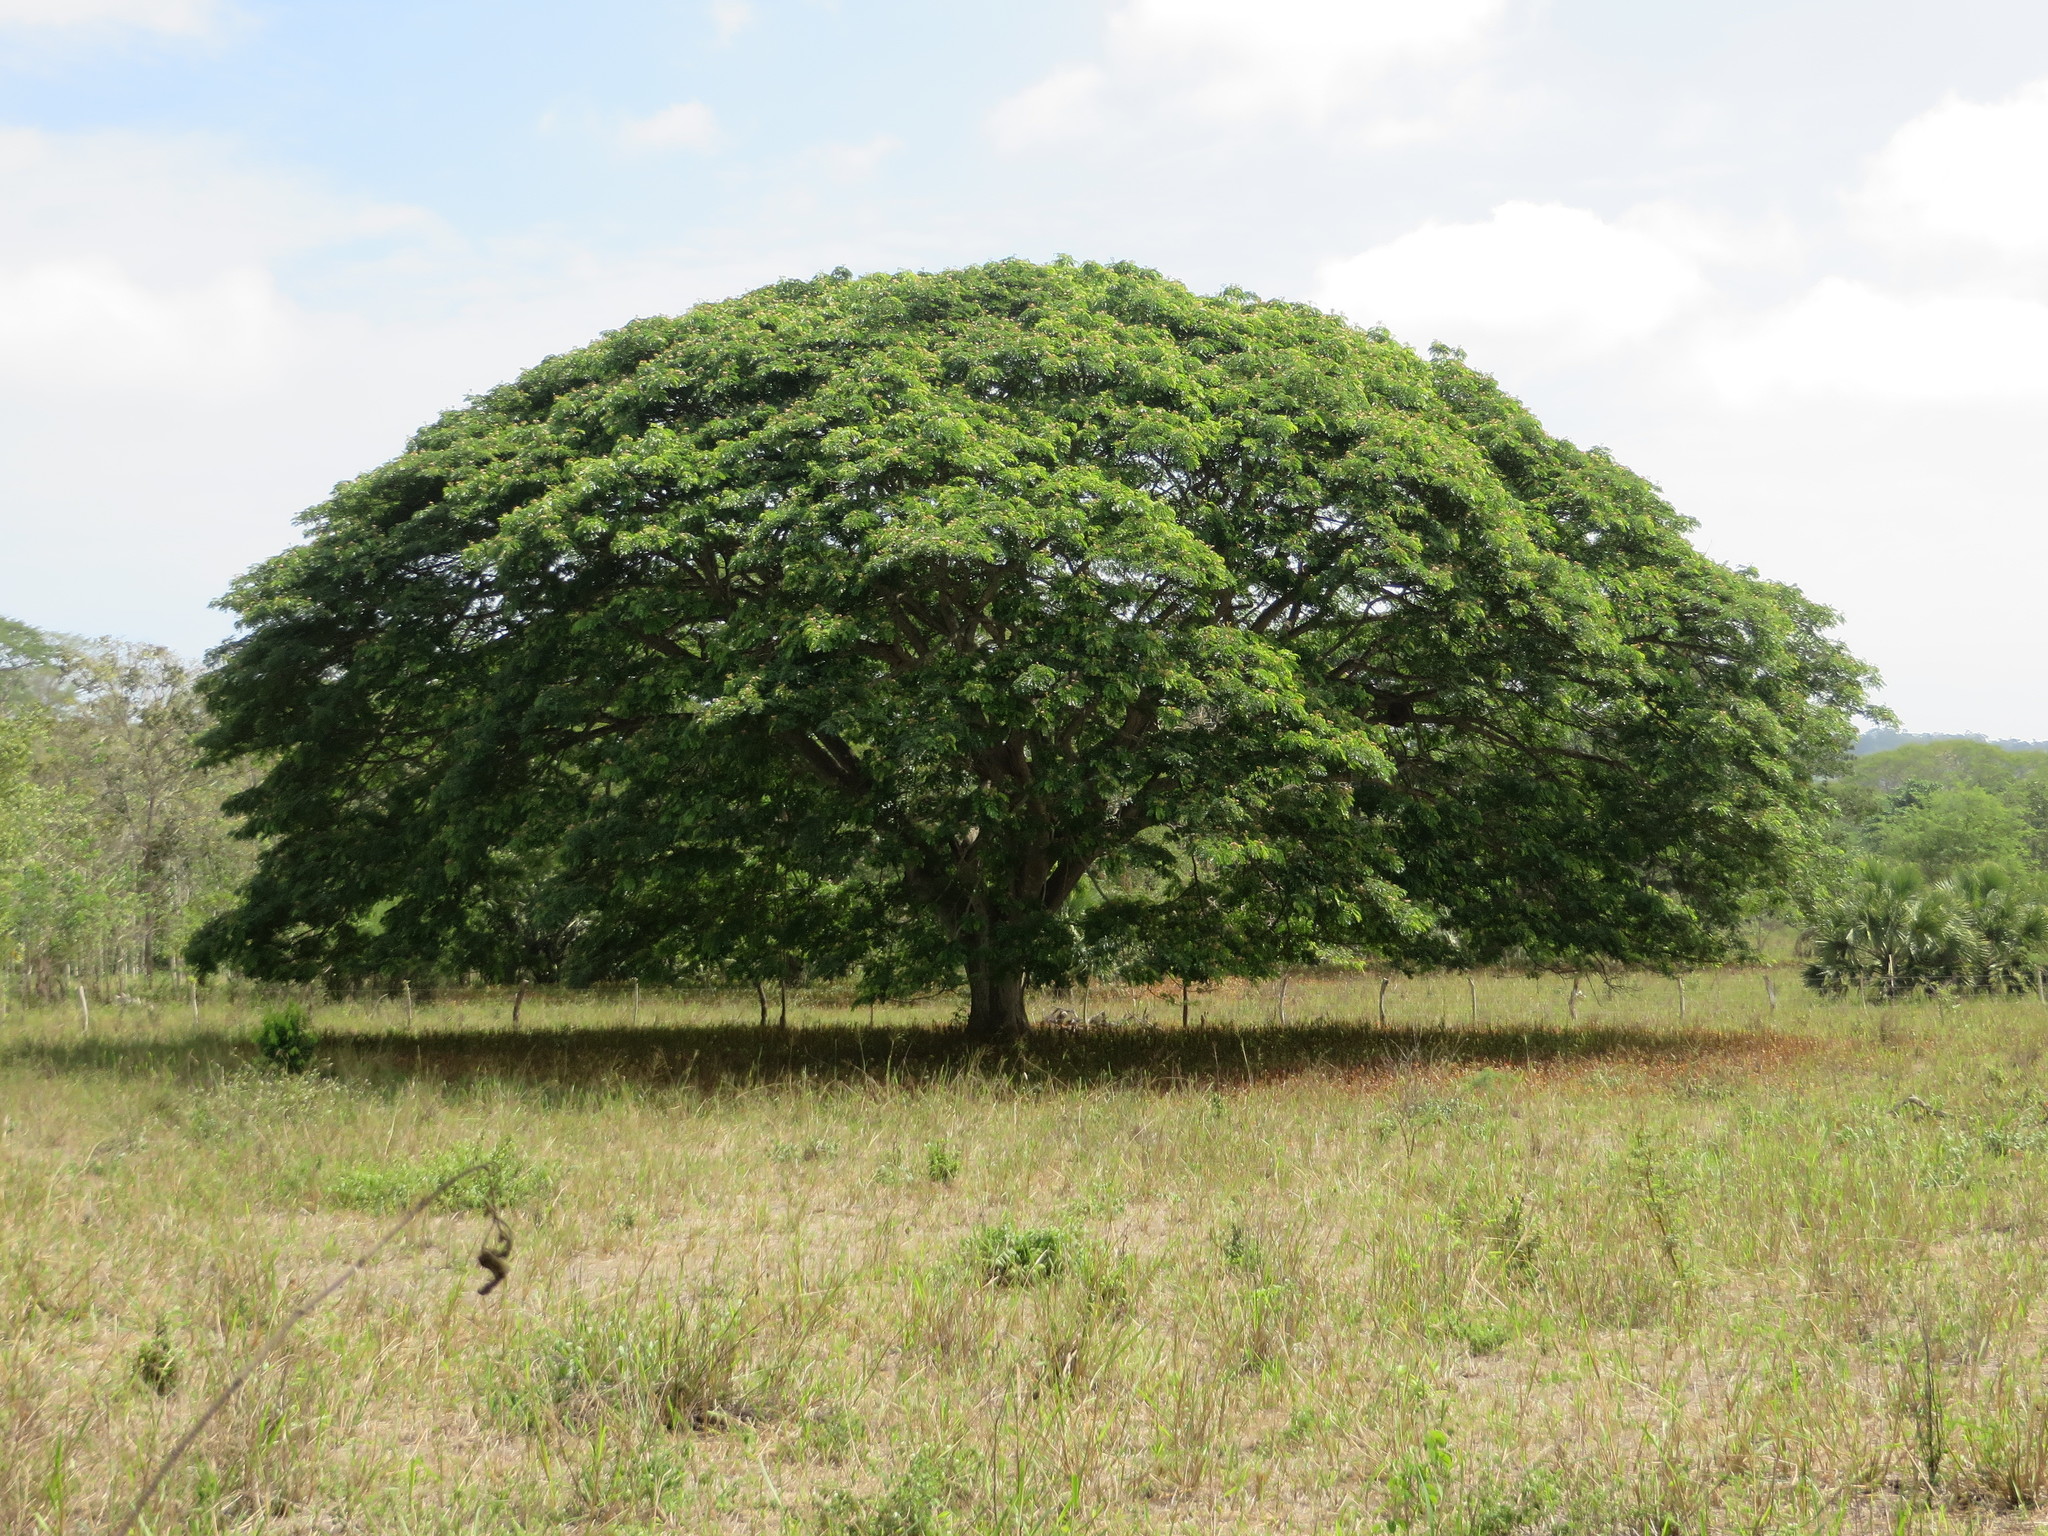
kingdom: Plantae
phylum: Tracheophyta
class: Magnoliopsida
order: Fabales
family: Fabaceae
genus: Samanea
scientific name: Samanea saman
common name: Raintree
